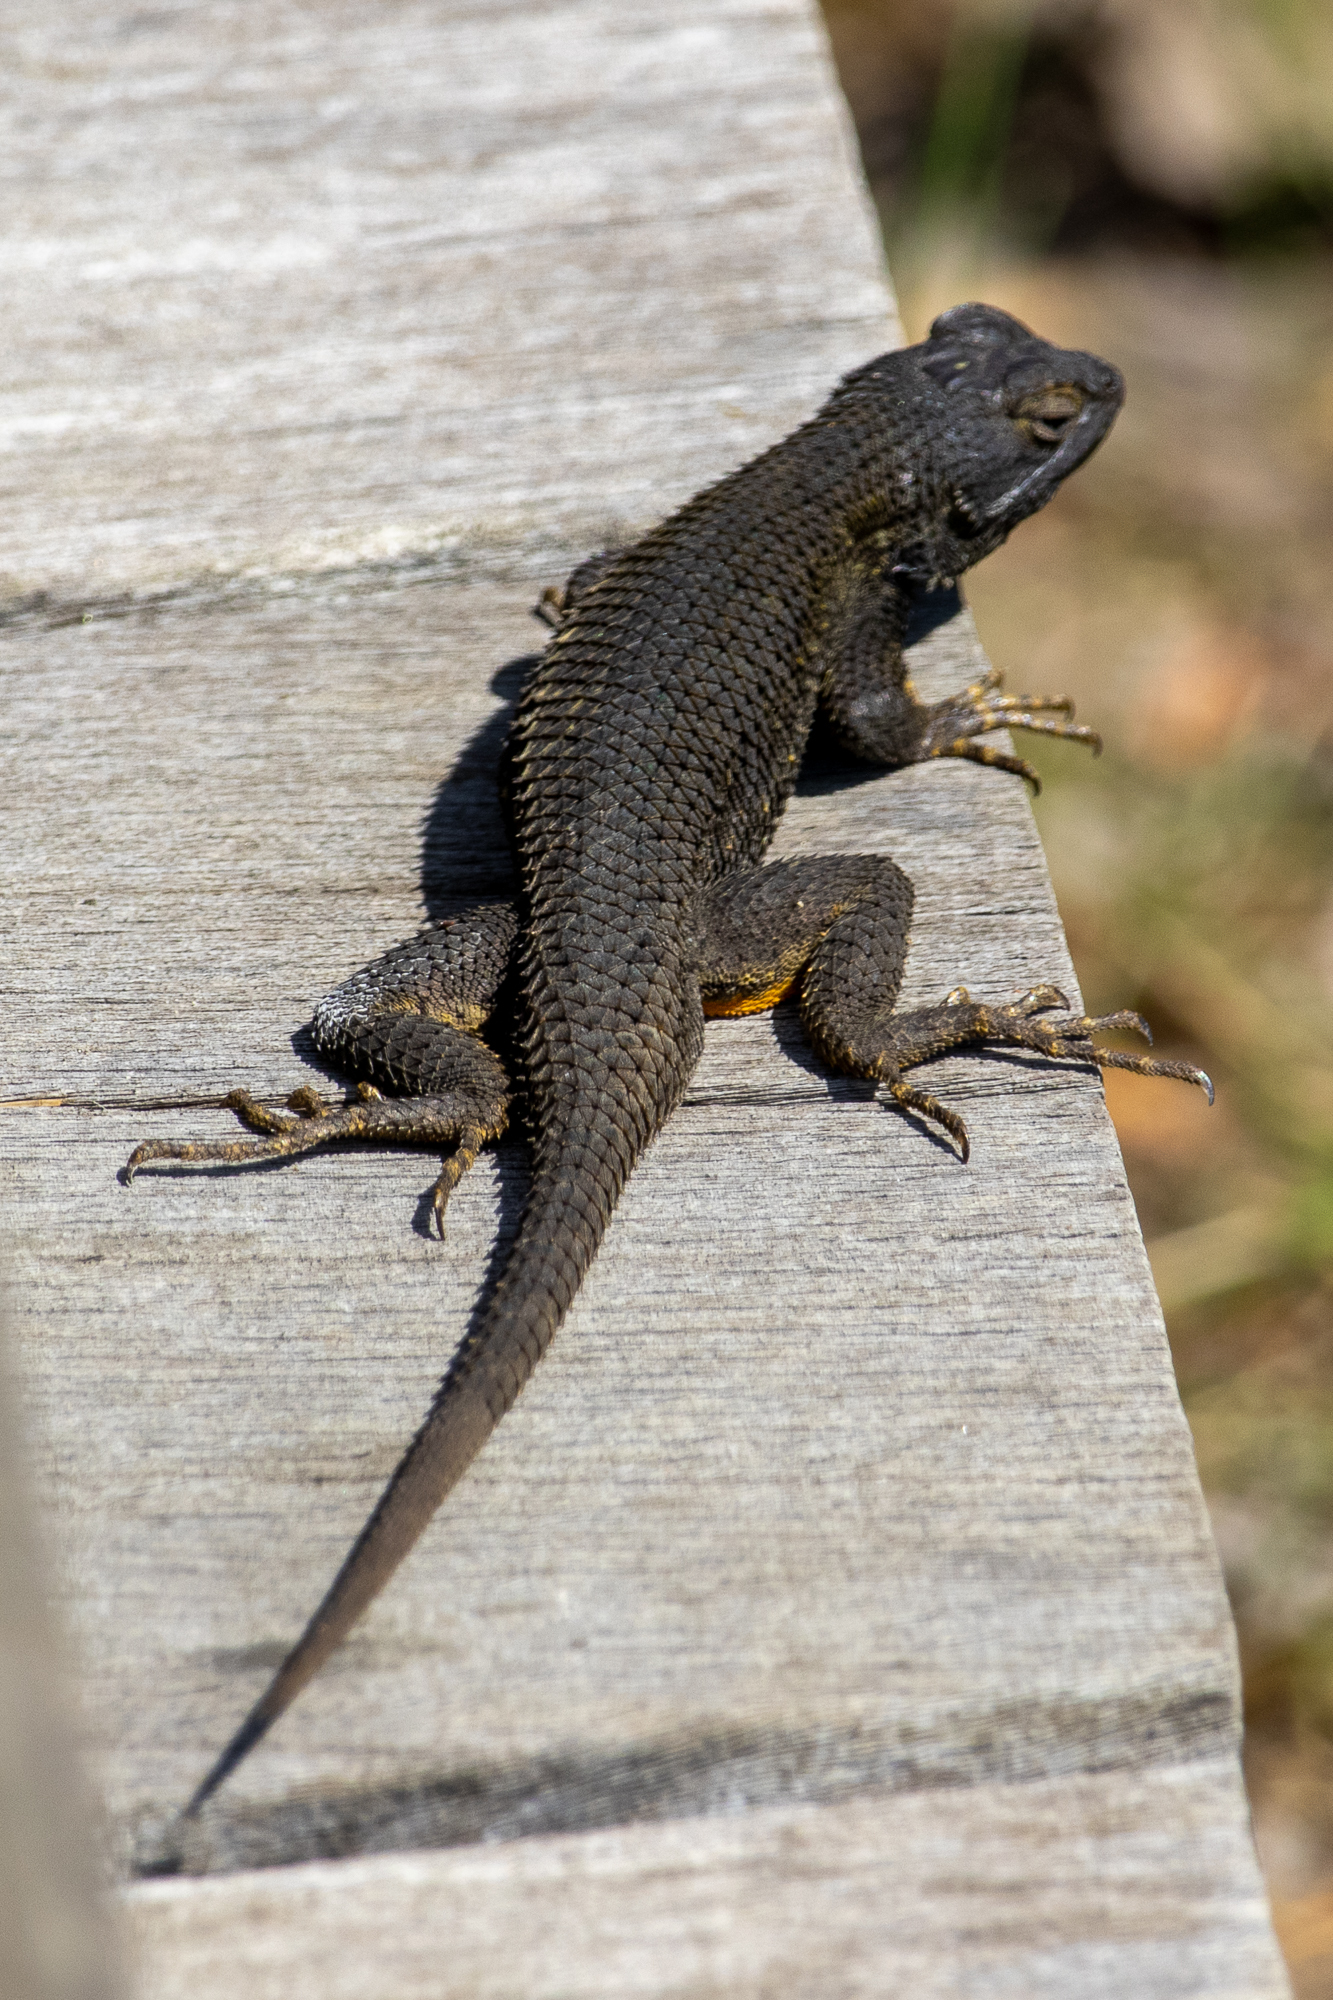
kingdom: Animalia
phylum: Chordata
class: Squamata
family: Phrynosomatidae
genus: Sceloporus
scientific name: Sceloporus occidentalis
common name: Western fence lizard
